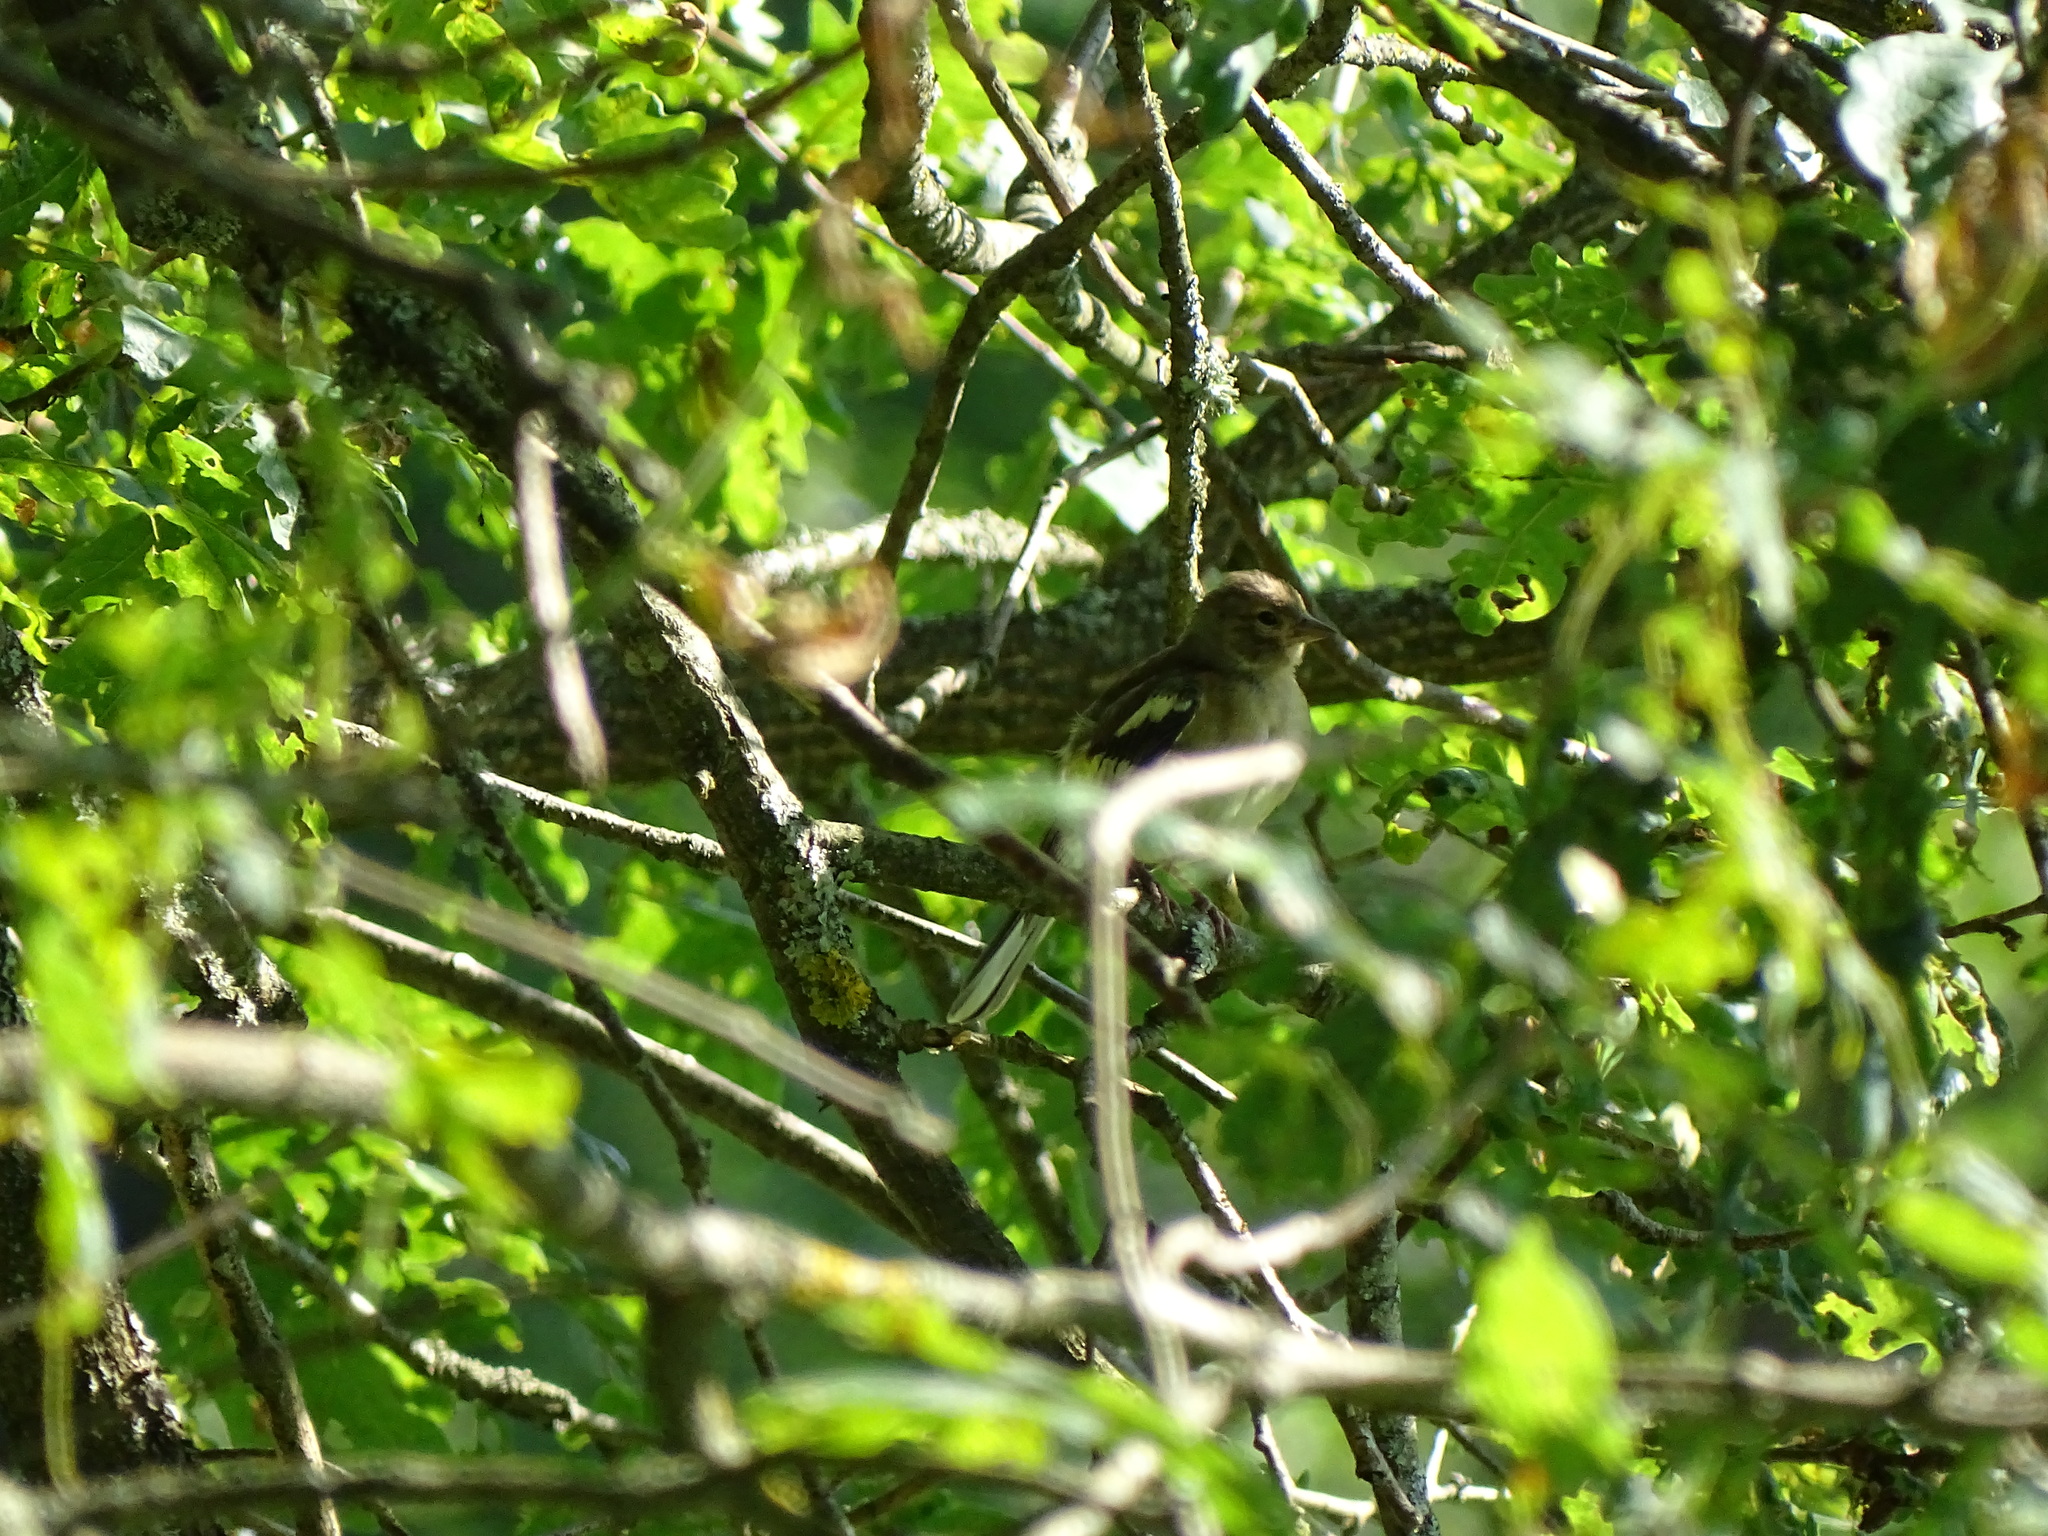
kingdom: Animalia
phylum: Chordata
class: Aves
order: Passeriformes
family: Fringillidae
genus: Fringilla
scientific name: Fringilla coelebs
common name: Common chaffinch
